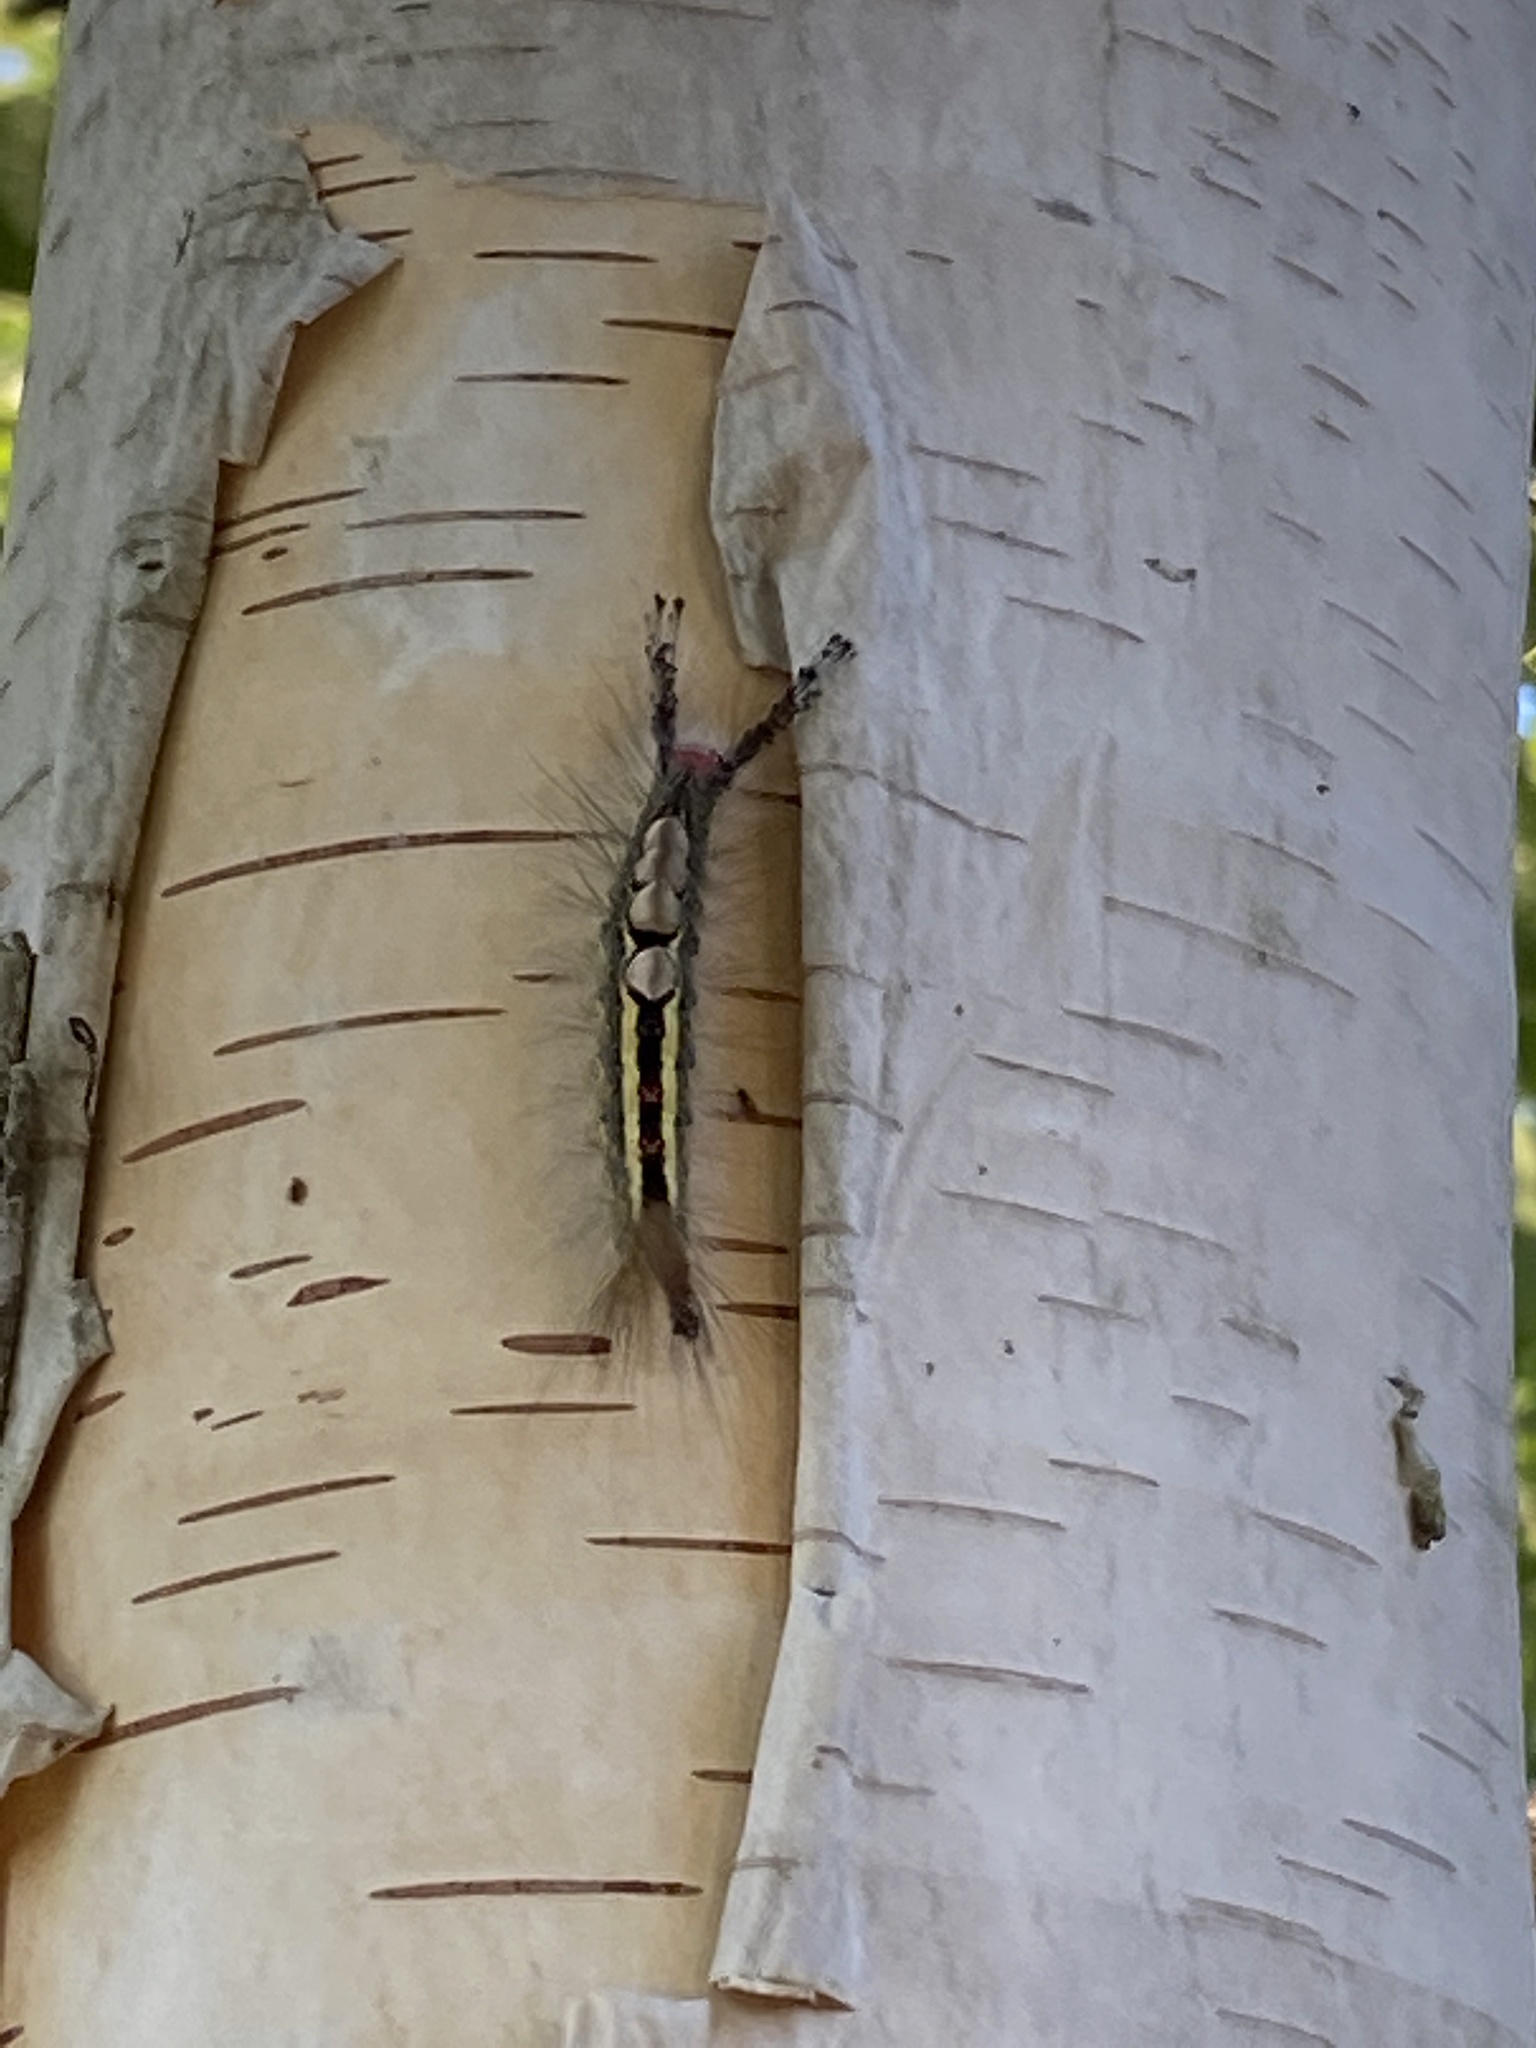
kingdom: Animalia
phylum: Arthropoda
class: Insecta
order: Lepidoptera
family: Erebidae
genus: Orgyia
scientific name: Orgyia leucostigma
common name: White-marked tussock moth
